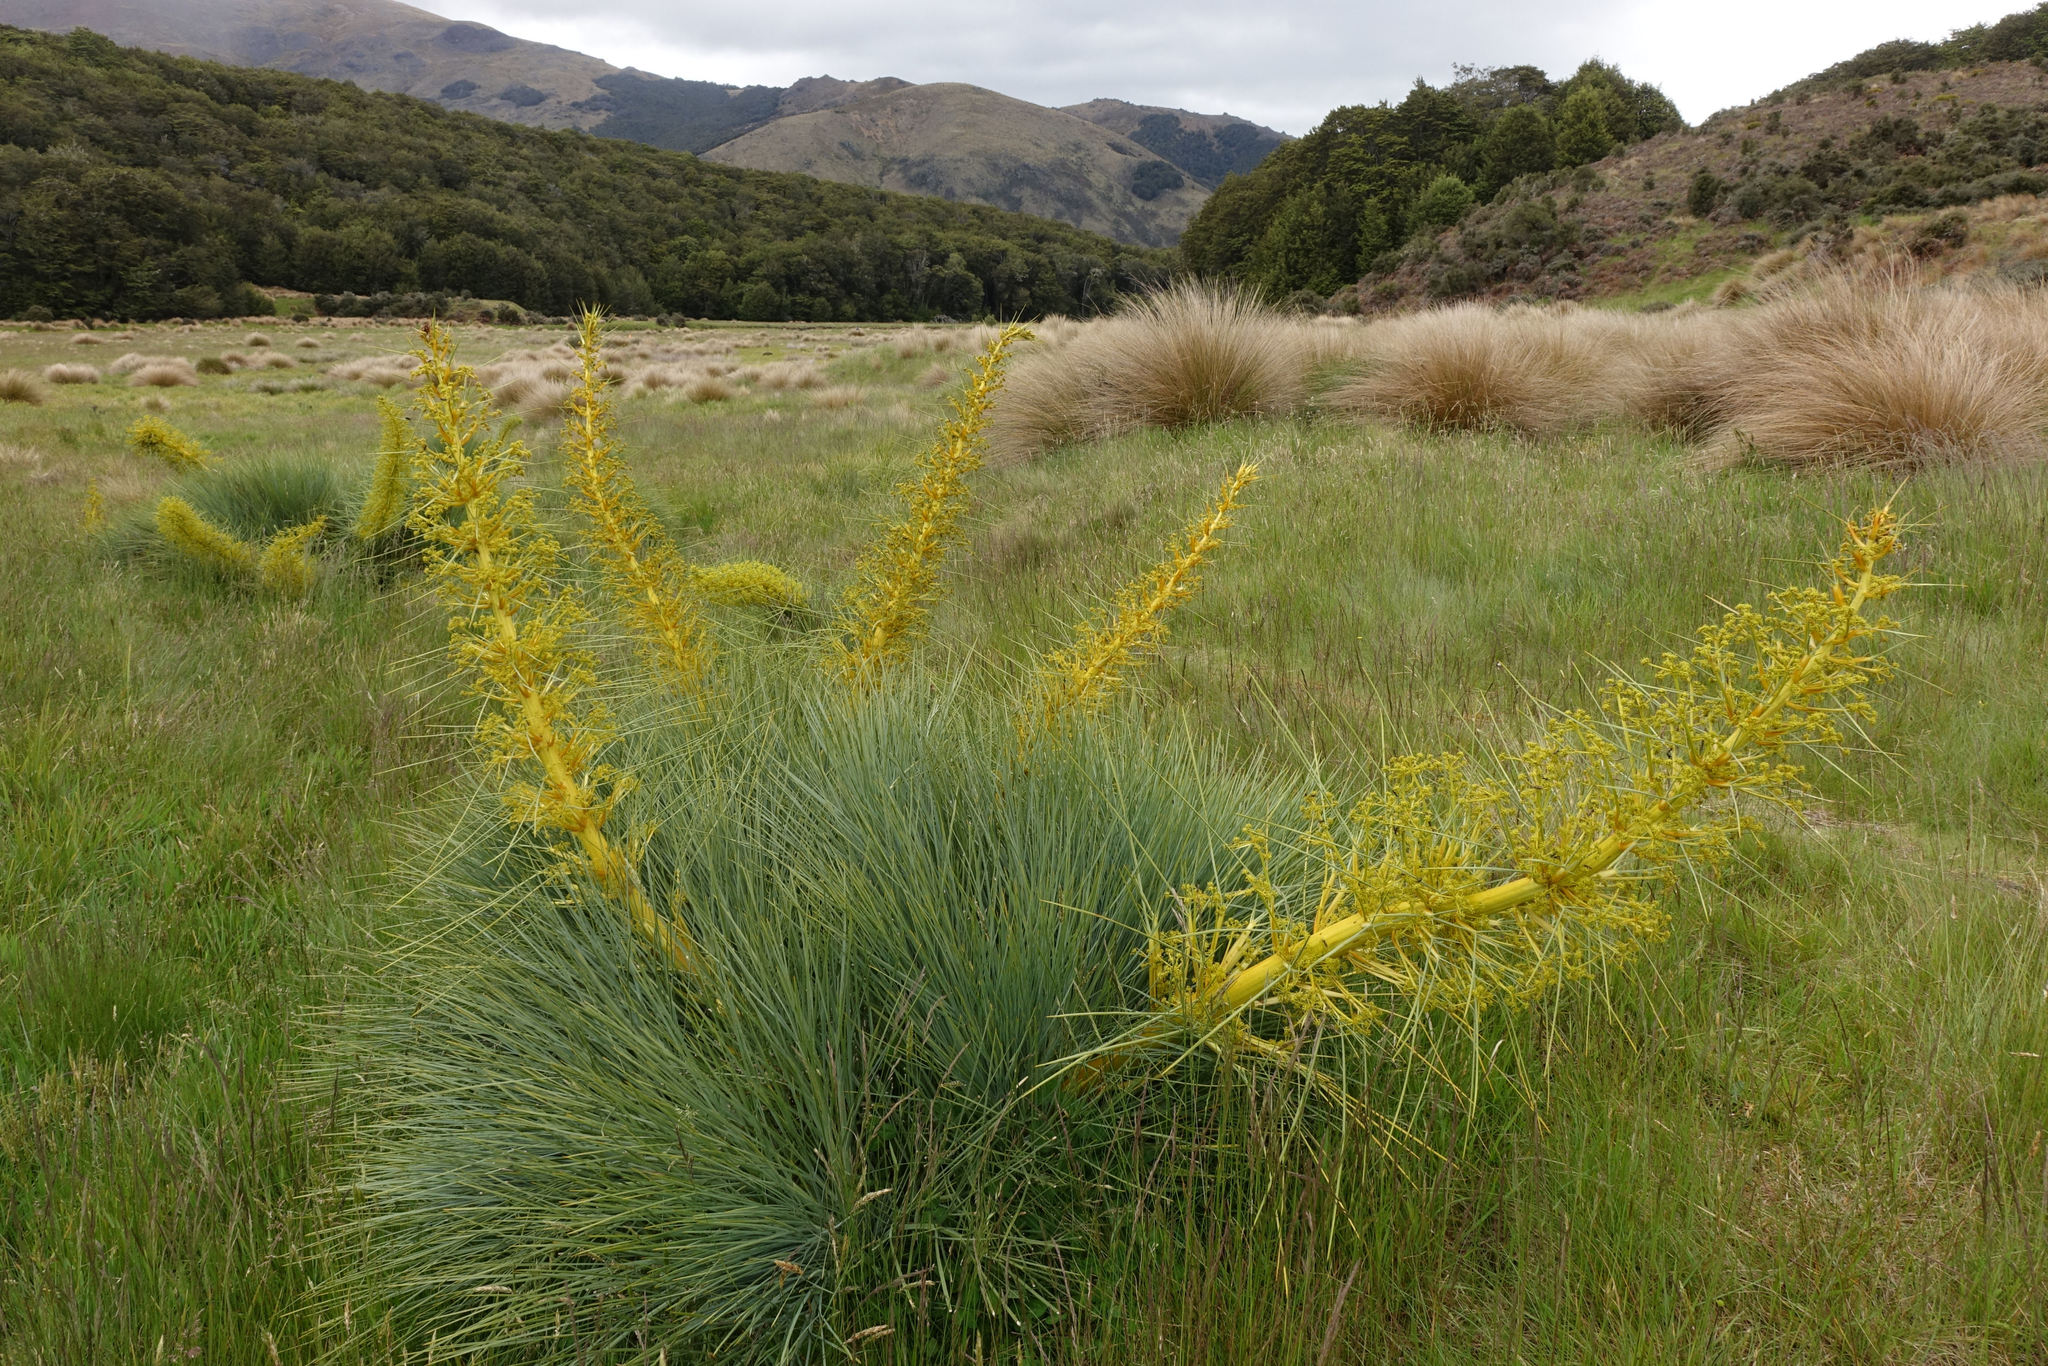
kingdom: Plantae
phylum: Tracheophyta
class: Magnoliopsida
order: Apiales
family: Apiaceae
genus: Aciphylla
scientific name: Aciphylla glaucescens
